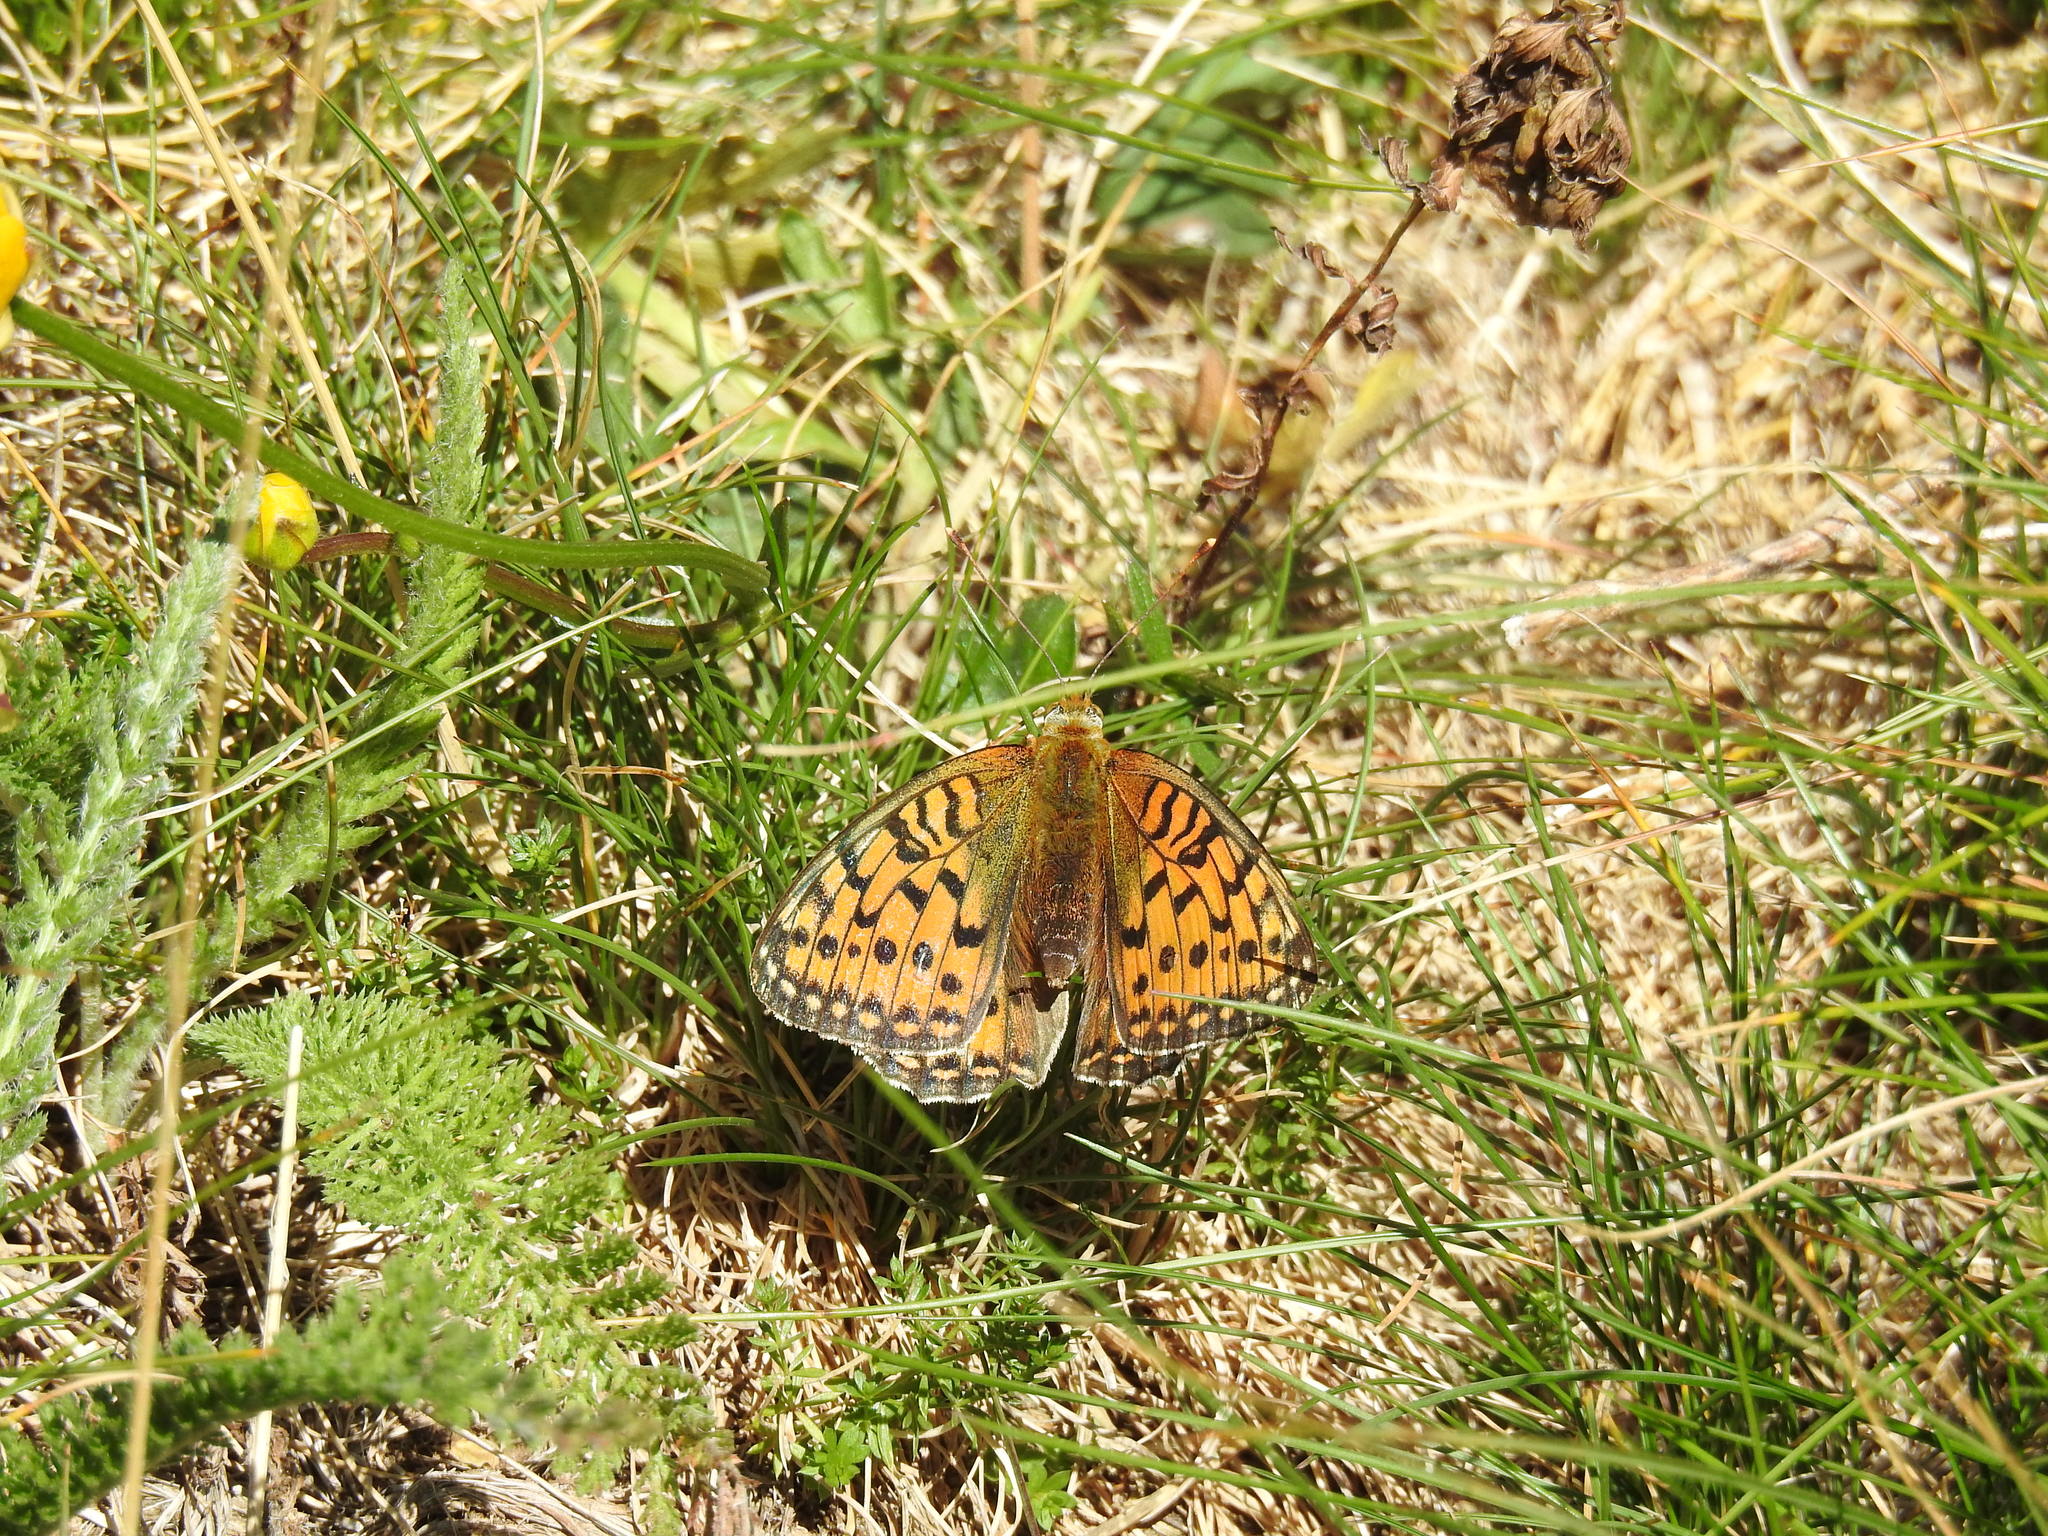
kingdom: Animalia
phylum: Arthropoda
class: Insecta
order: Lepidoptera
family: Nymphalidae
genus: Speyeria
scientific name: Speyeria aglaja
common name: Dark green fritillary
